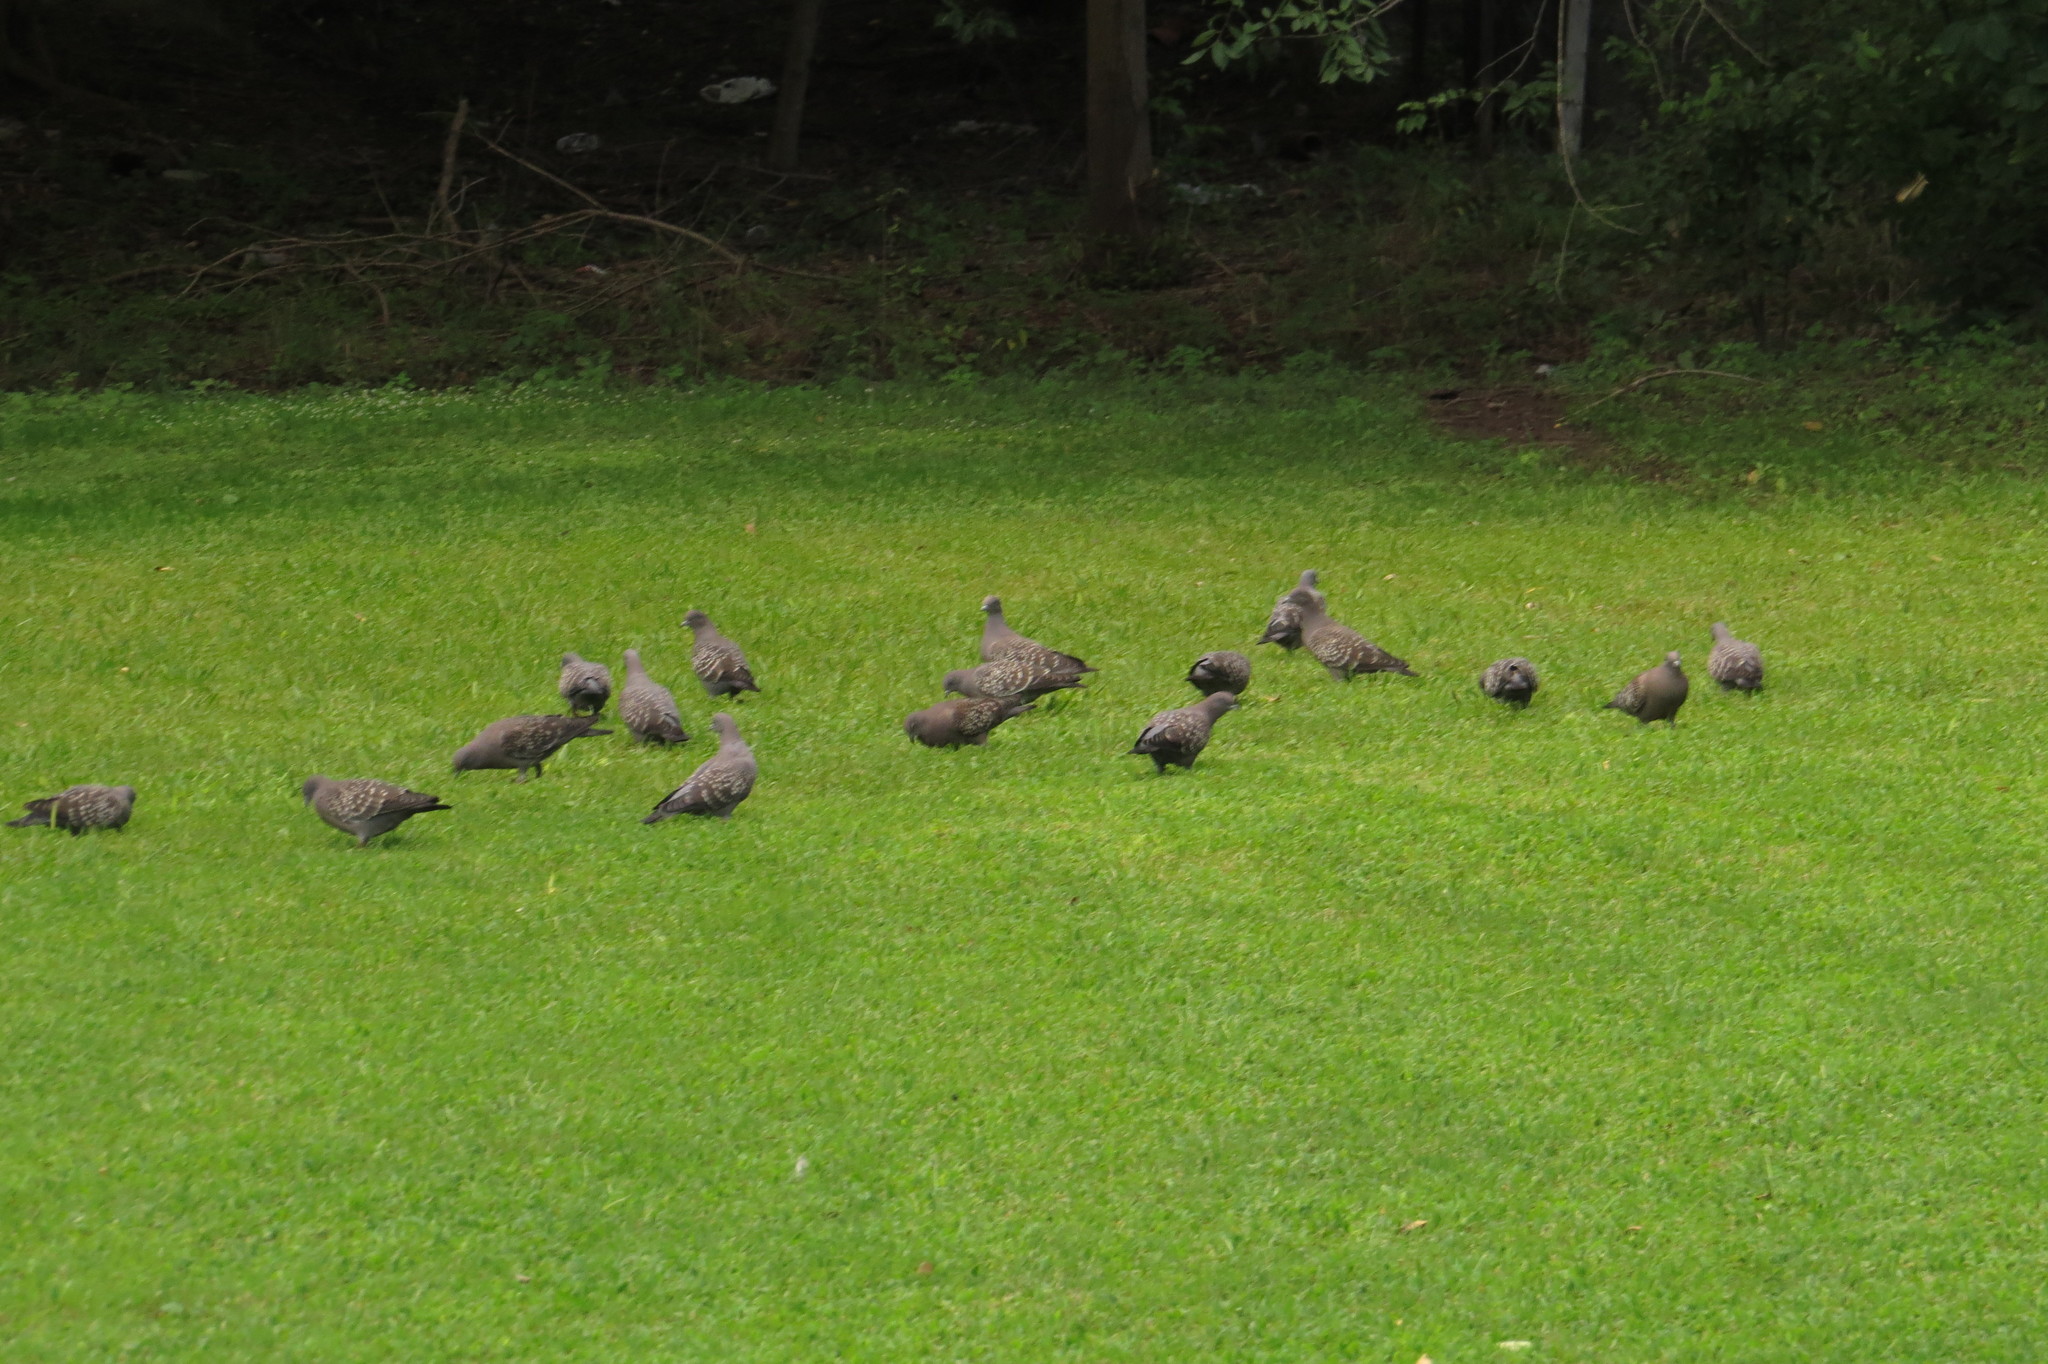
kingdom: Animalia
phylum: Chordata
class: Aves
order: Columbiformes
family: Columbidae
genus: Patagioenas
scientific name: Patagioenas maculosa
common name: Spot-winged pigeon
